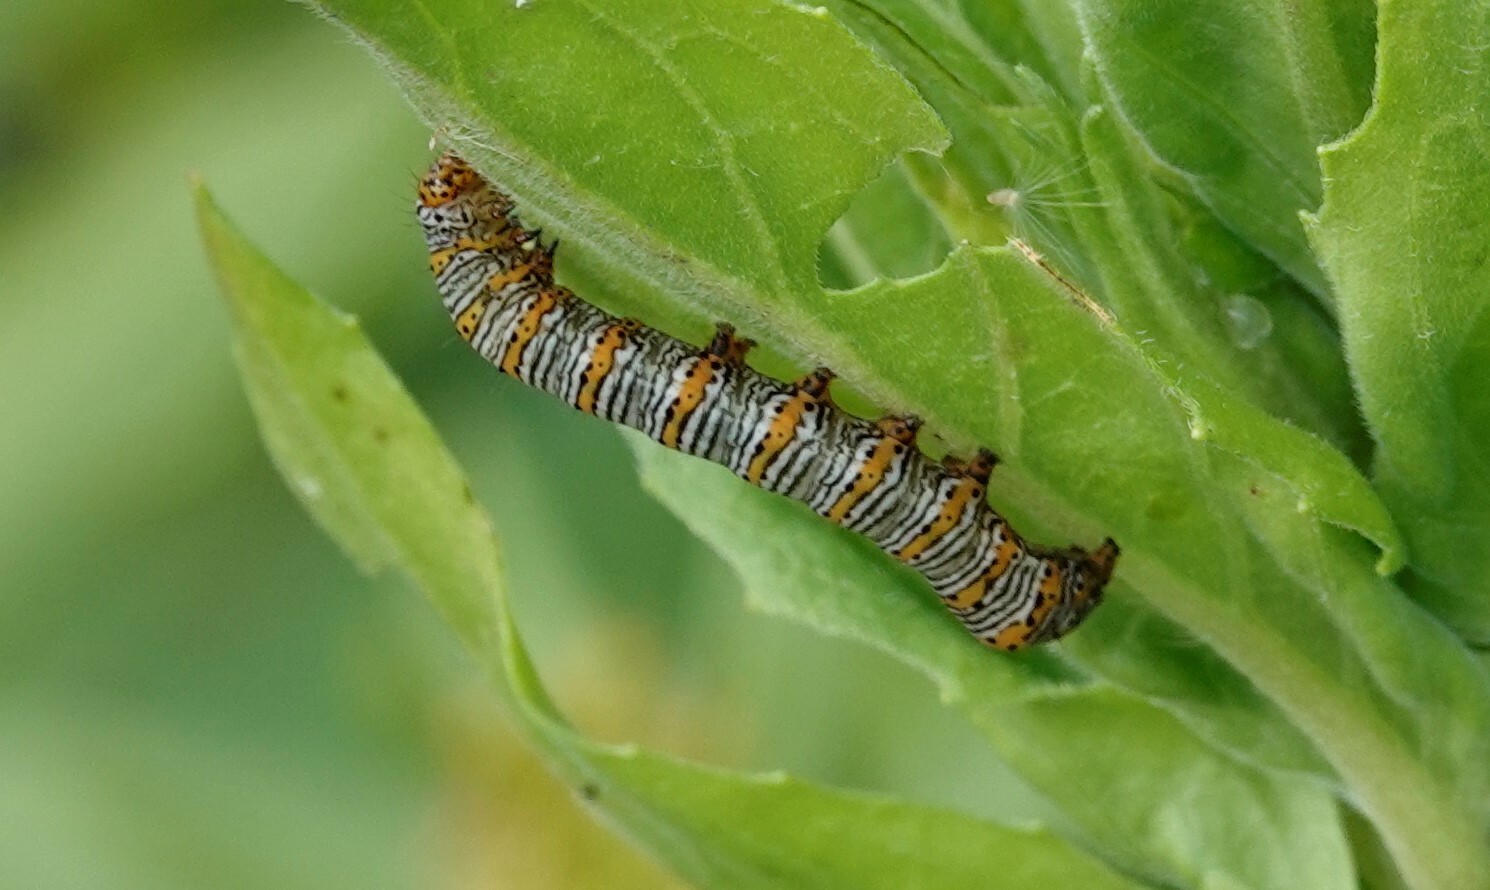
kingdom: Animalia
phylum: Arthropoda
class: Insecta
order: Lepidoptera
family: Noctuidae
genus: Eudryas
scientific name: Eudryas unio
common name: Pearly wood-nymph
